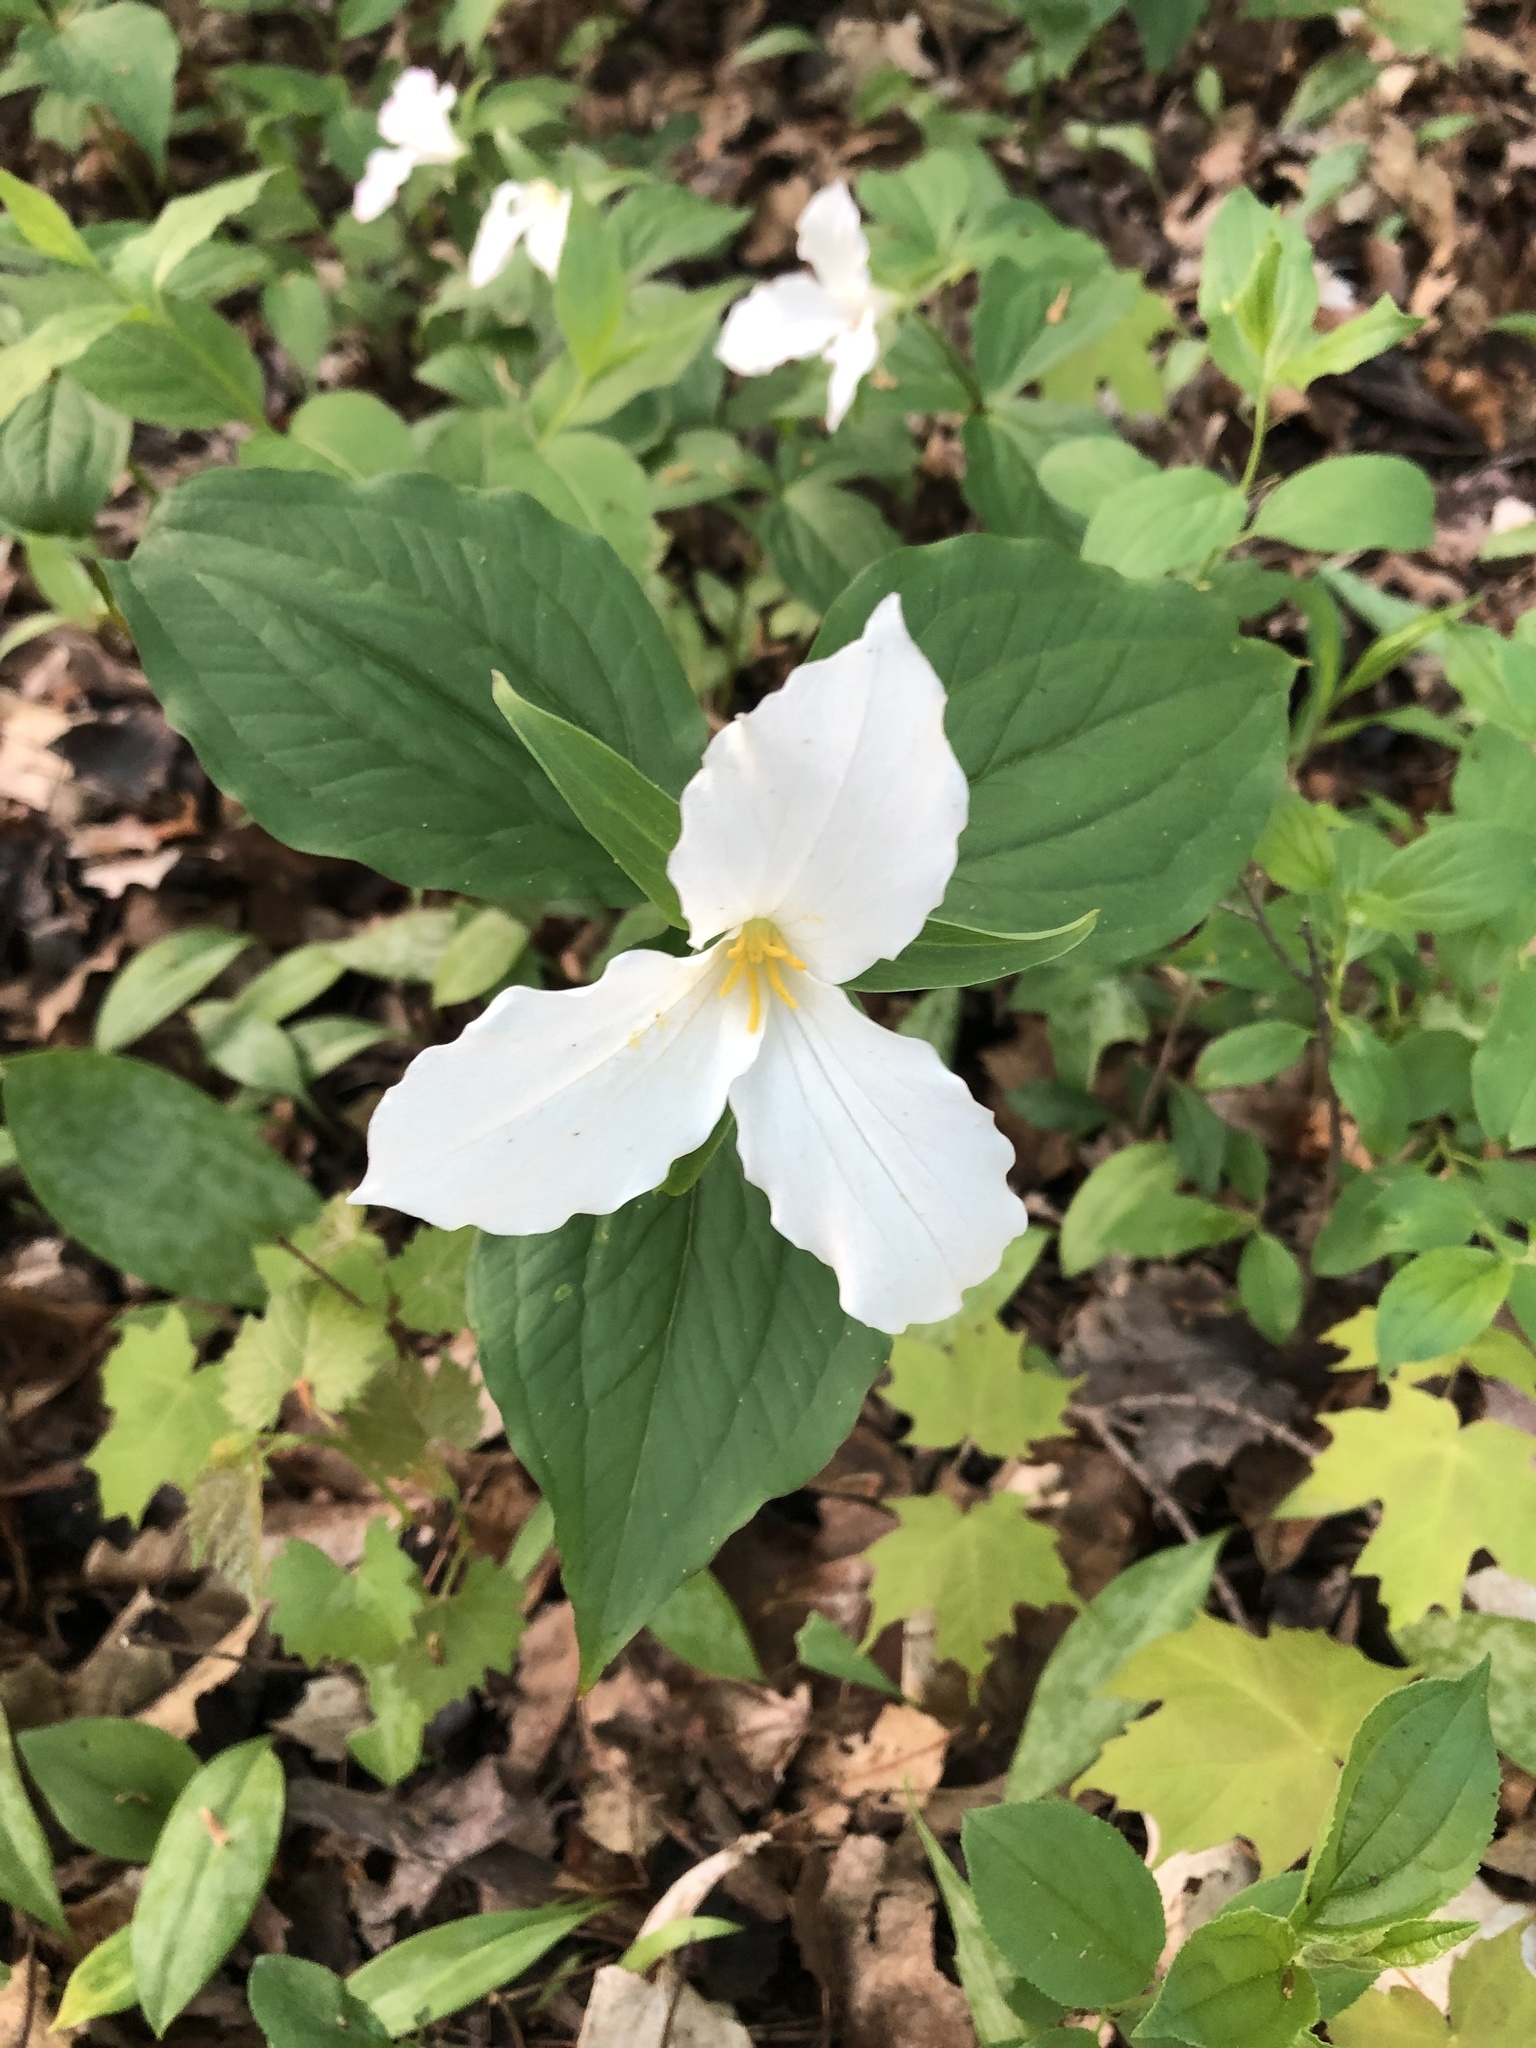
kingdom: Plantae
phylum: Tracheophyta
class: Liliopsida
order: Liliales
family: Melanthiaceae
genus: Trillium
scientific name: Trillium grandiflorum
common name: Great white trillium
